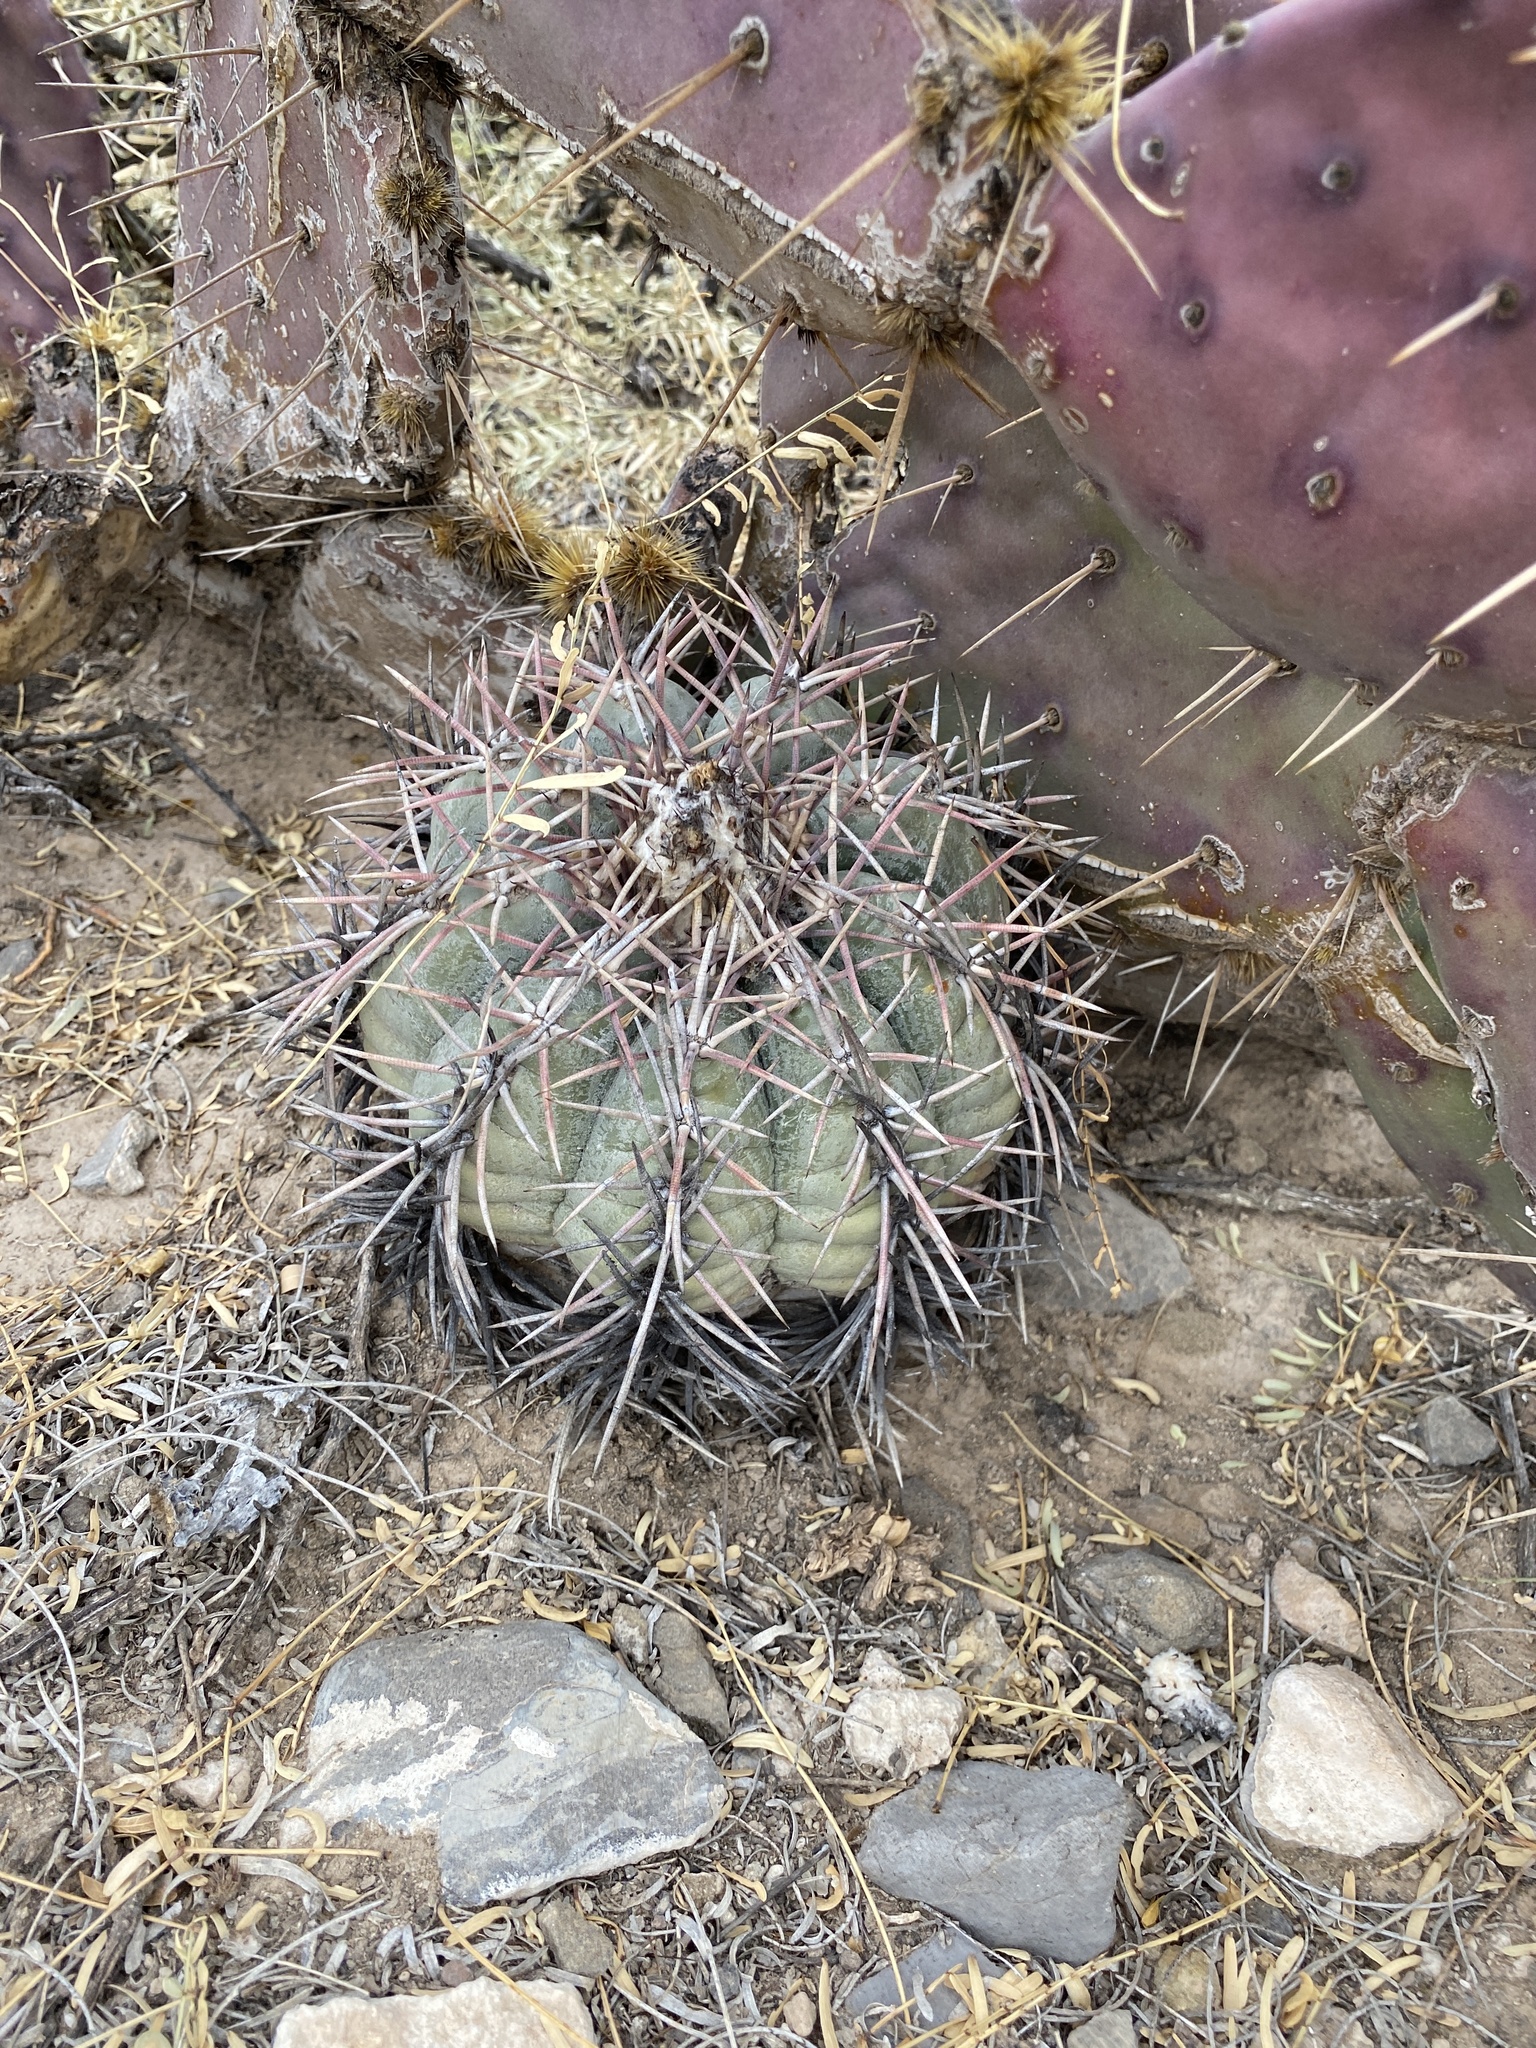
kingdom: Plantae
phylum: Tracheophyta
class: Magnoliopsida
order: Caryophyllales
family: Cactaceae
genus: Echinocactus
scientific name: Echinocactus horizonthalonius
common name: Devilshead
